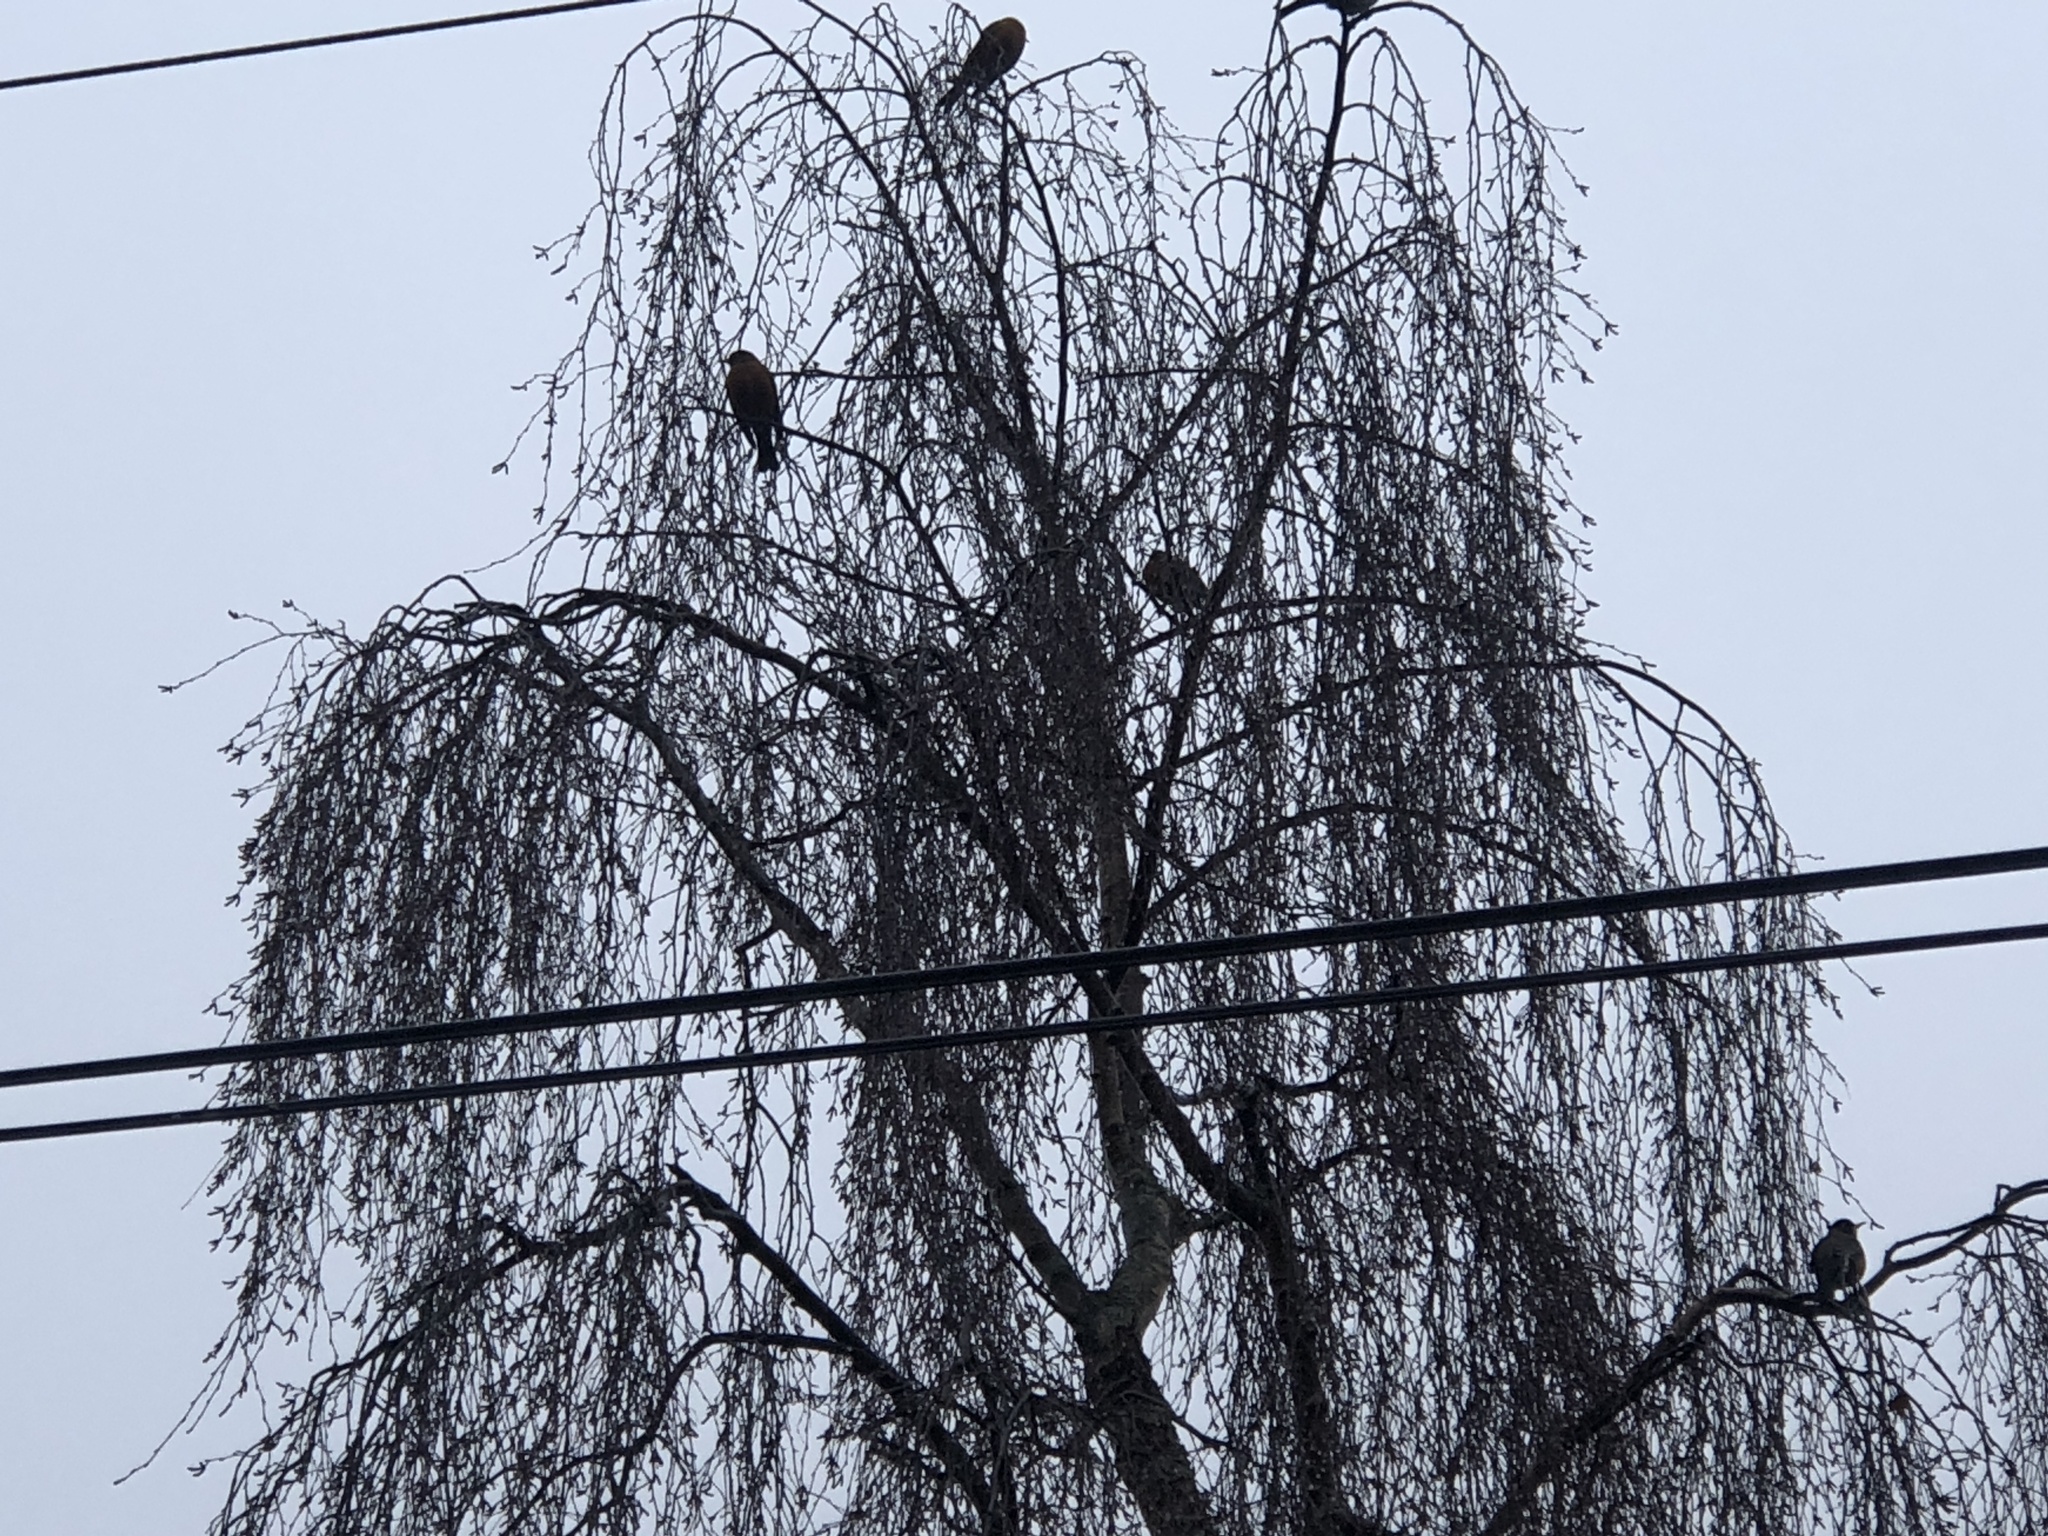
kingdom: Animalia
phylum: Chordata
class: Aves
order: Passeriformes
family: Turdidae
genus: Turdus
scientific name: Turdus migratorius
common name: American robin
